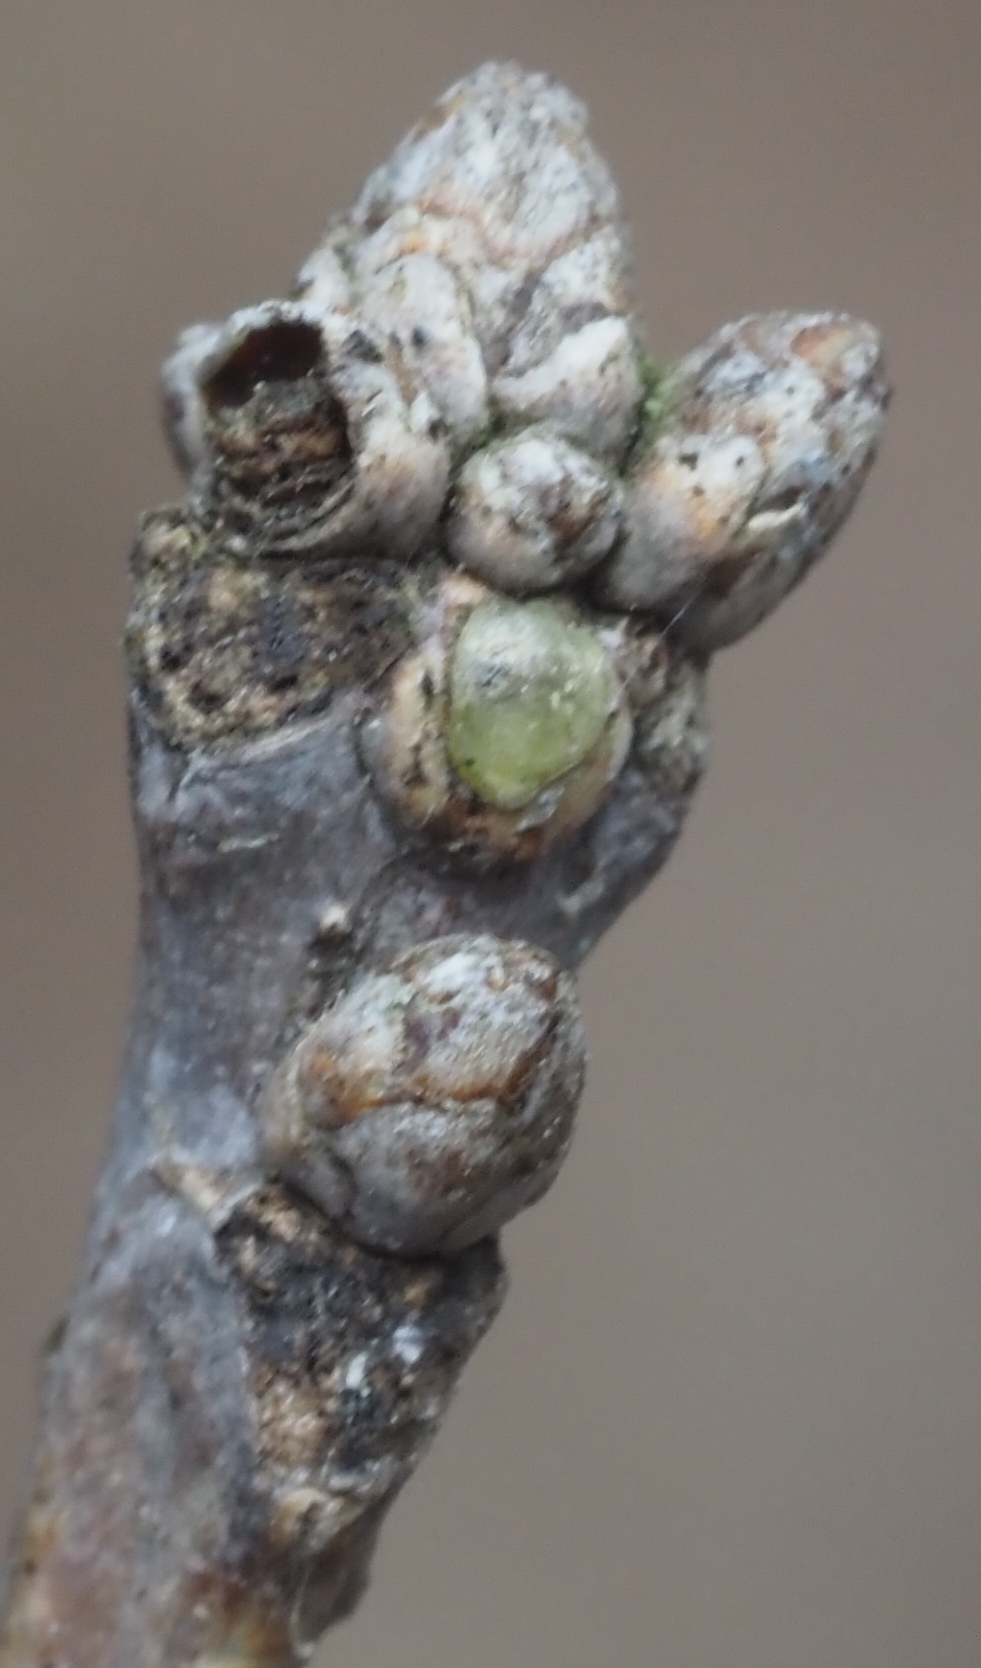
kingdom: Plantae
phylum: Tracheophyta
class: Magnoliopsida
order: Fagales
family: Fagaceae
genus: Quercus
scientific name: Quercus alba
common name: White oak
